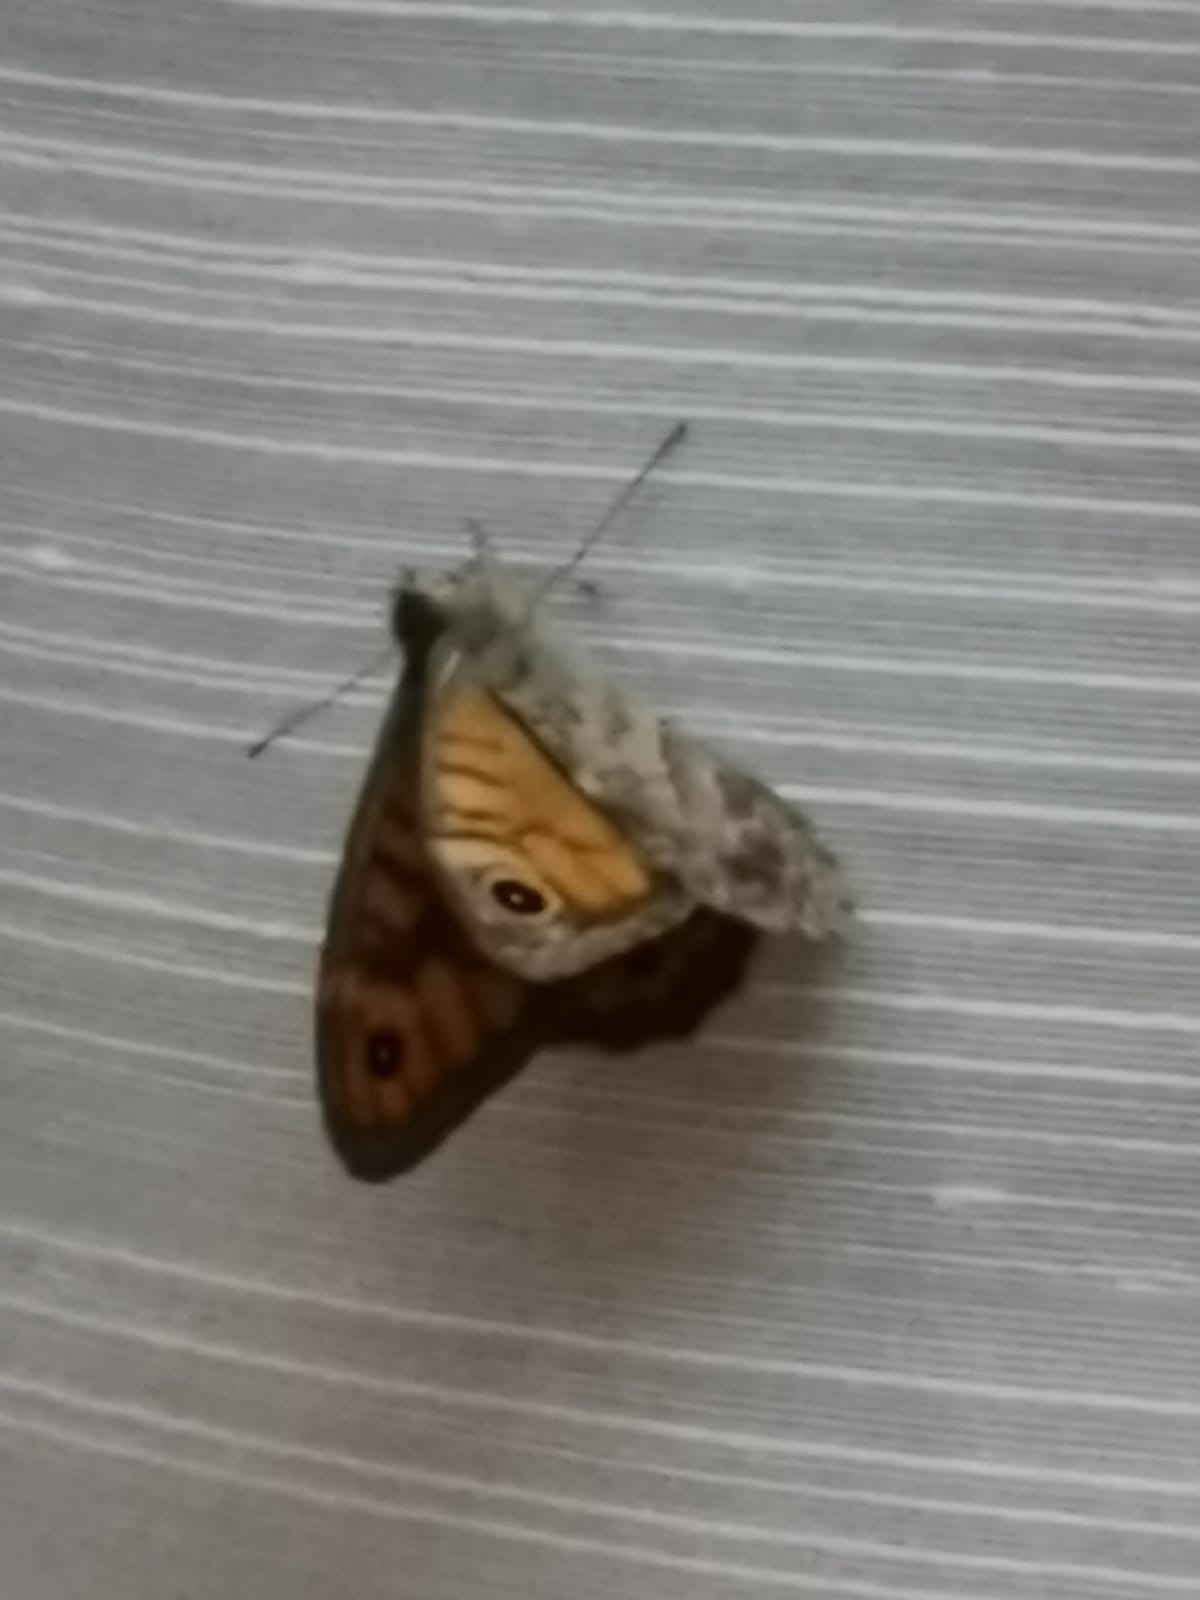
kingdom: Animalia
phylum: Arthropoda
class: Insecta
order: Lepidoptera
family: Nymphalidae
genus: Pararge
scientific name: Pararge Lasiommata megera
